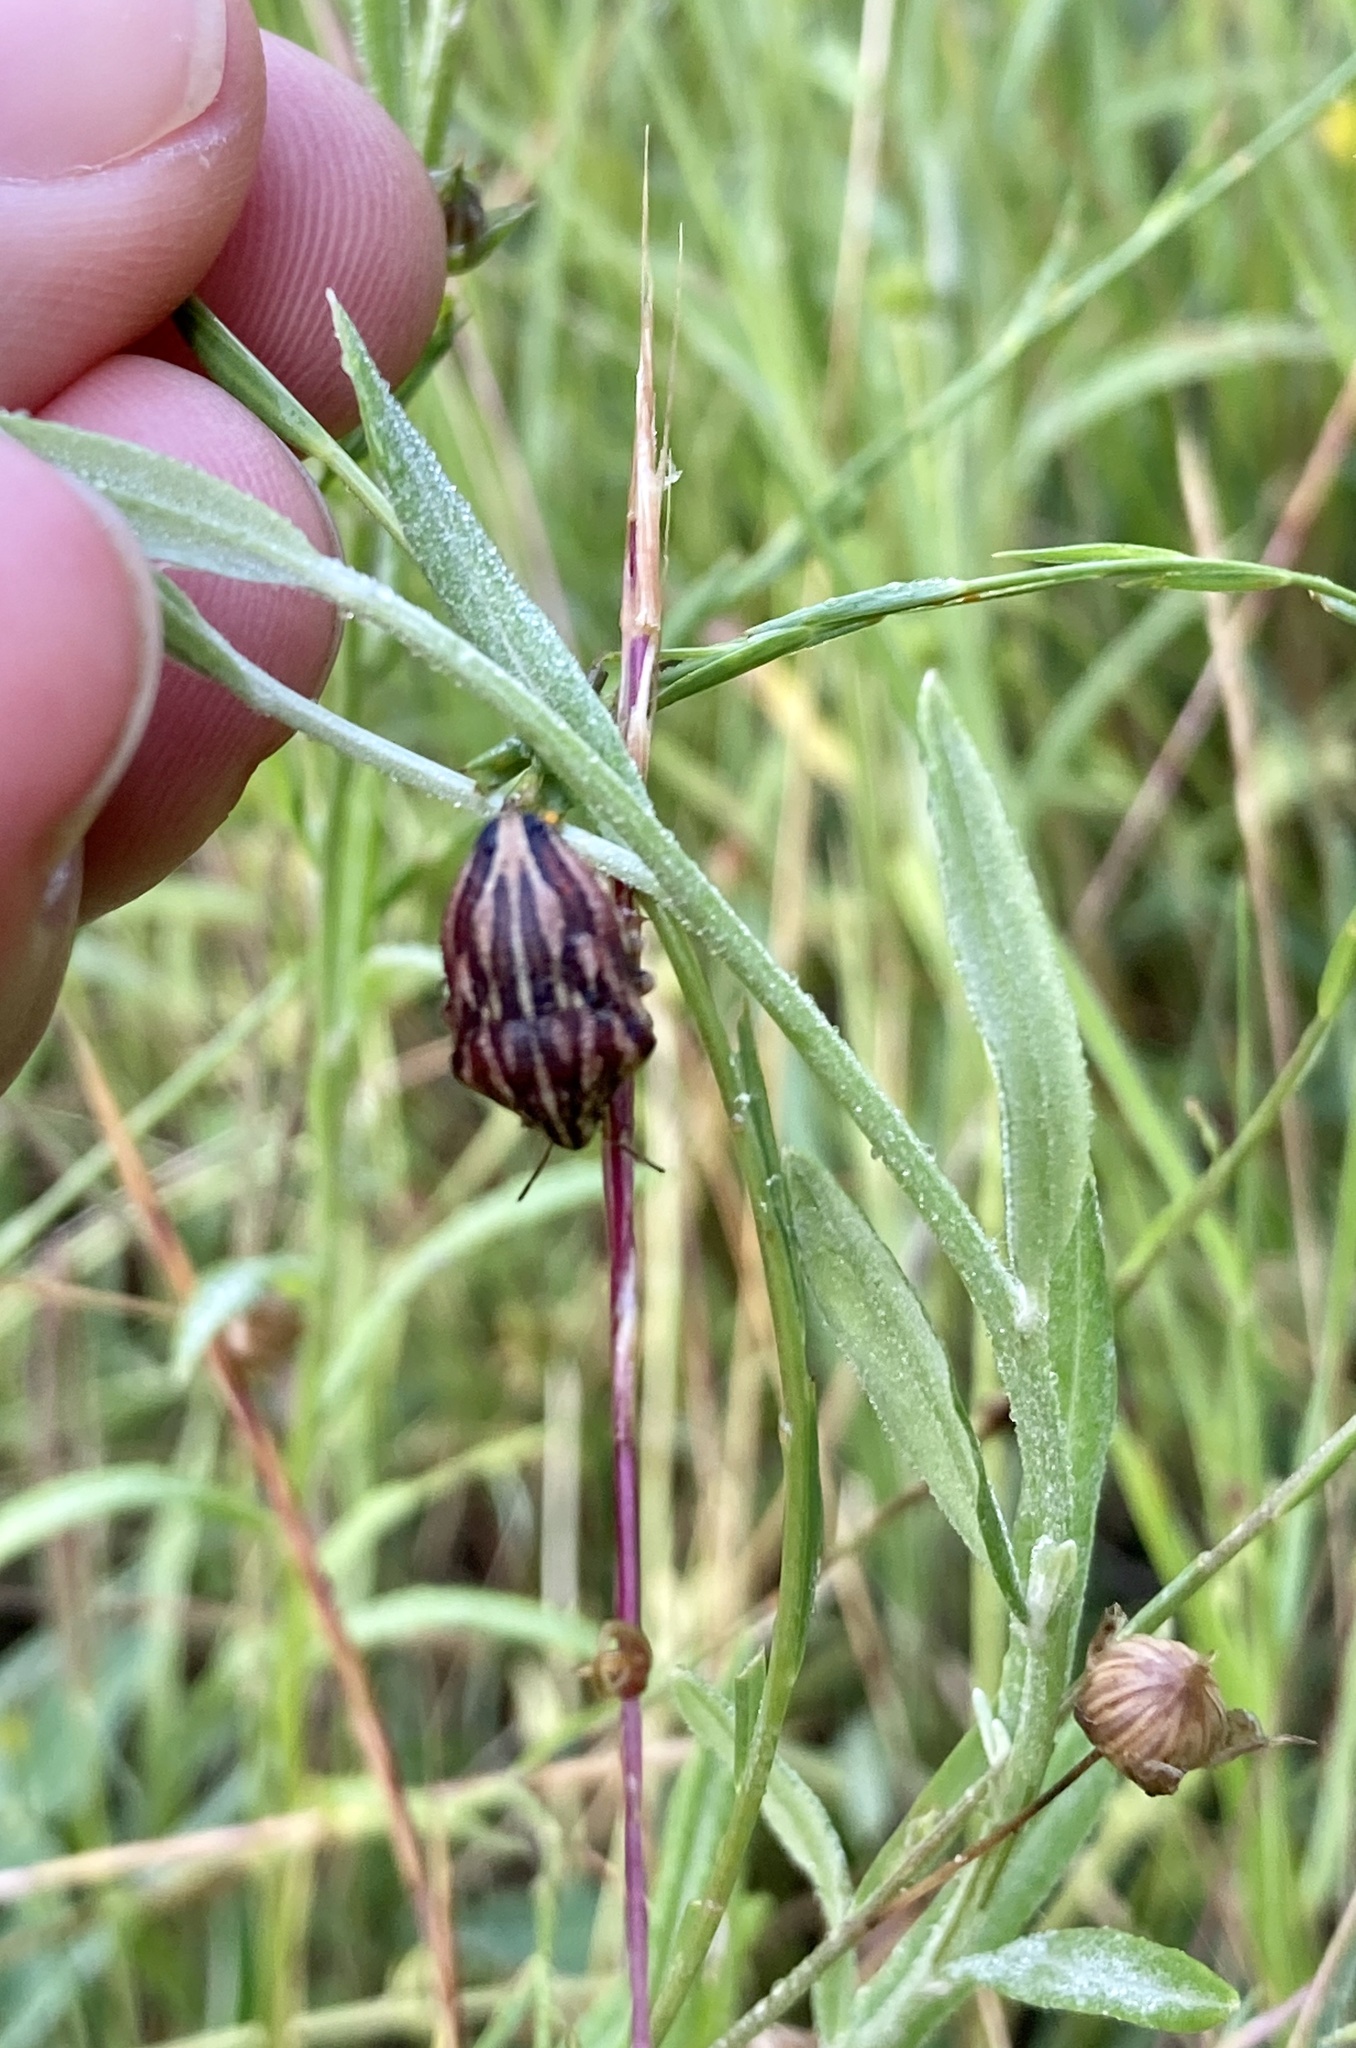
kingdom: Animalia
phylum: Arthropoda
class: Insecta
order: Hemiptera
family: Scutelleridae
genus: Odontotarsus
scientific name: Odontotarsus purpureolineatus
